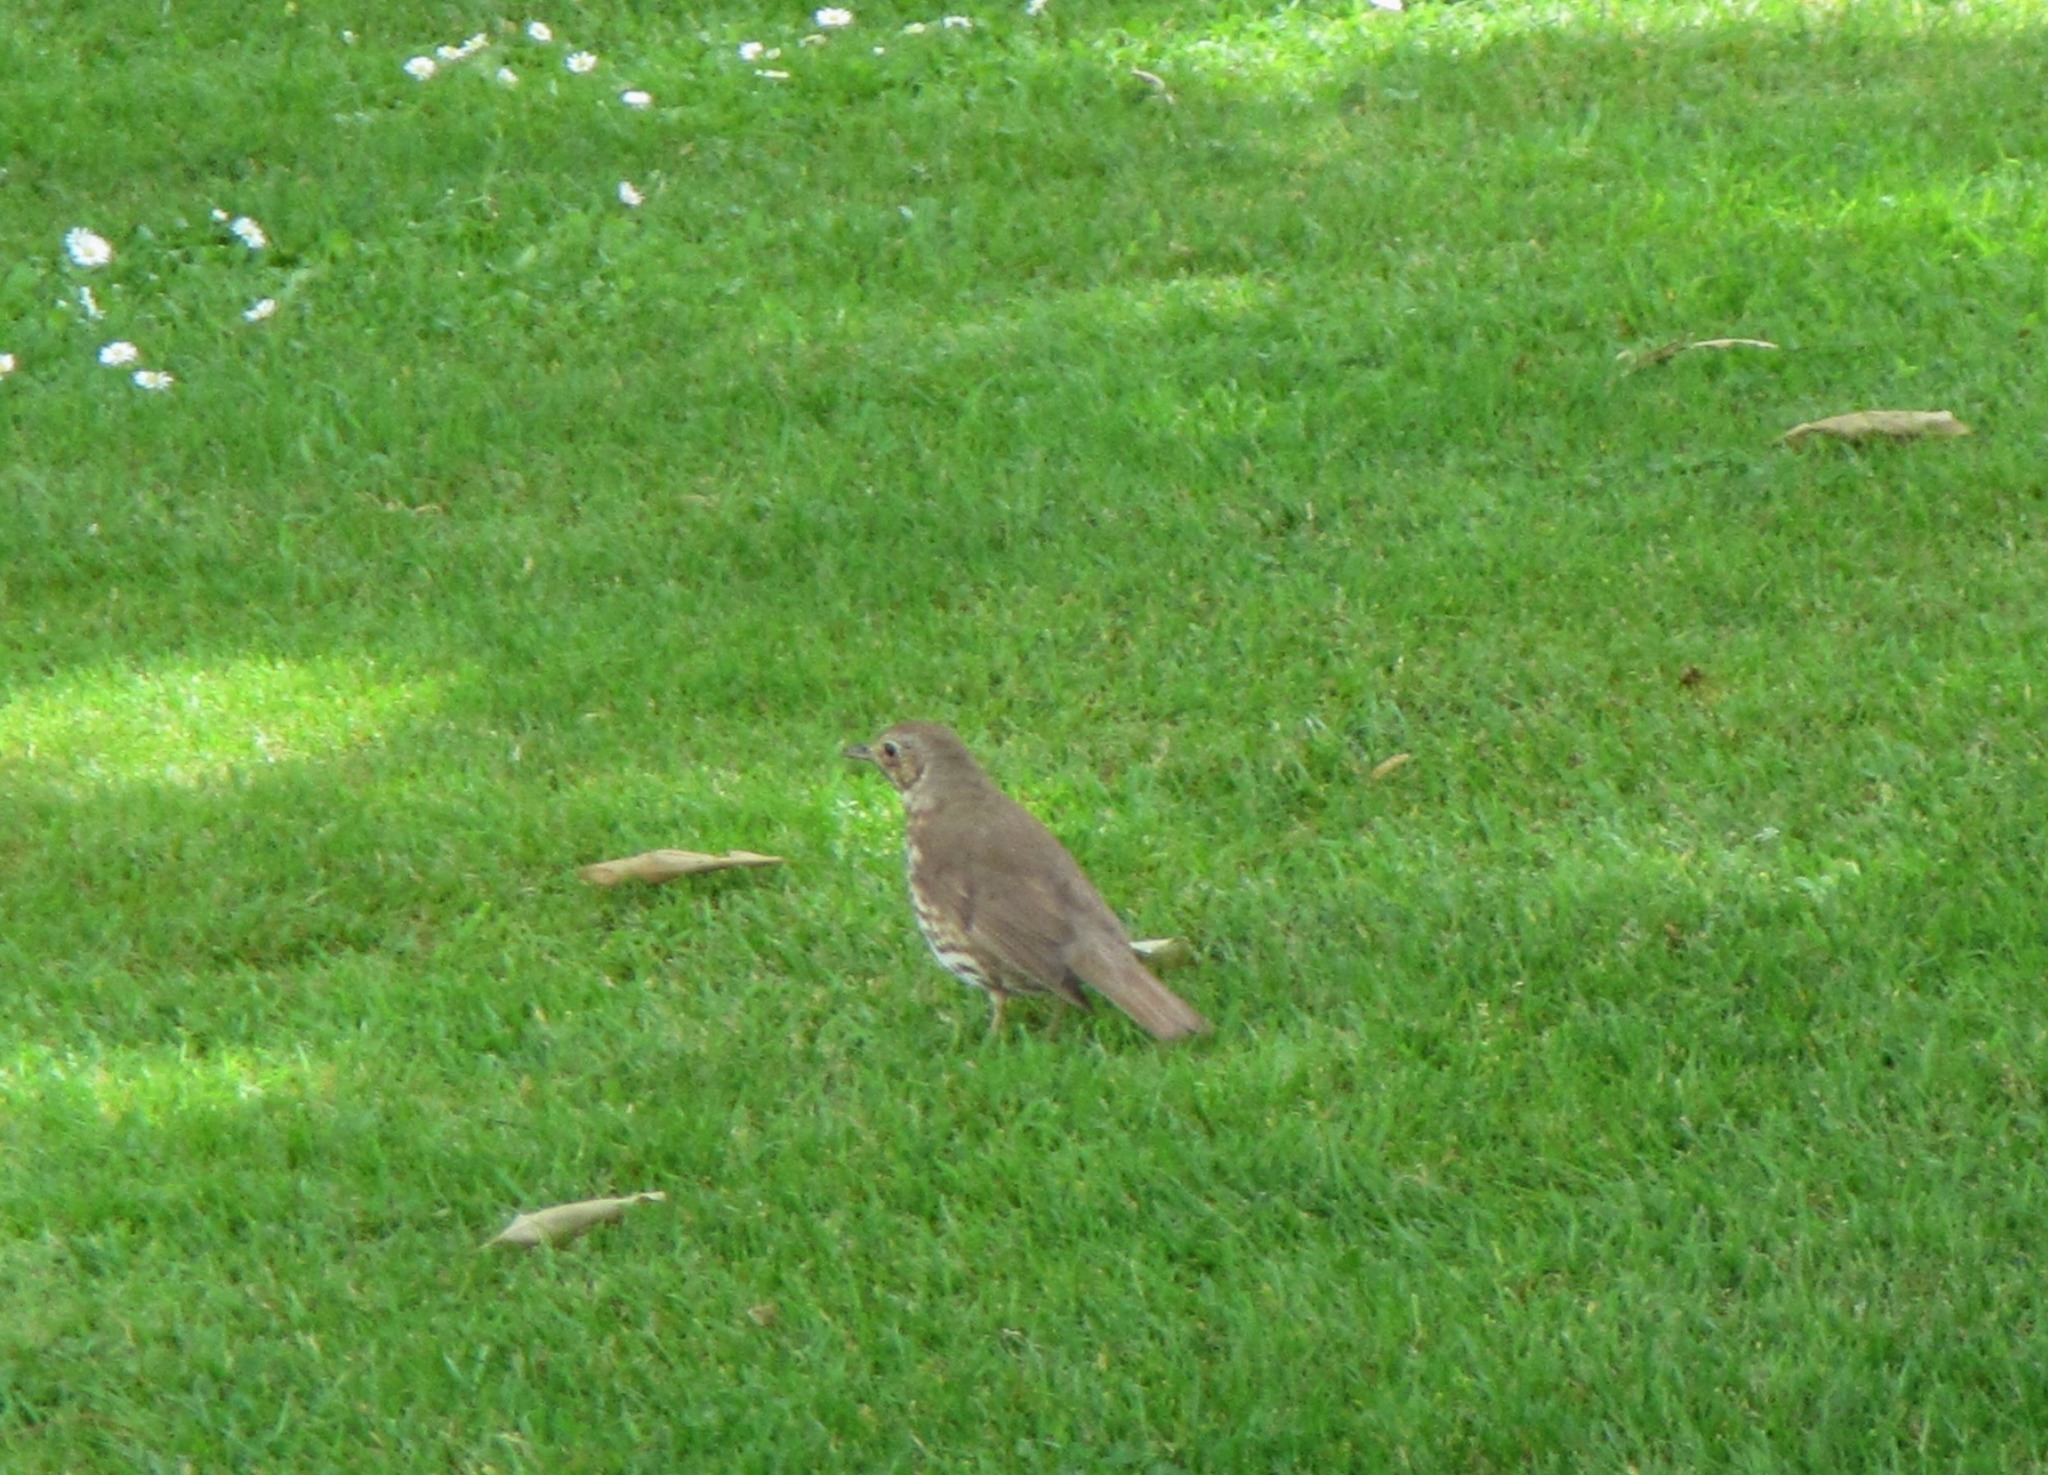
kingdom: Animalia
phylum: Chordata
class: Aves
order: Passeriformes
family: Turdidae
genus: Turdus
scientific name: Turdus philomelos
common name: Song thrush
